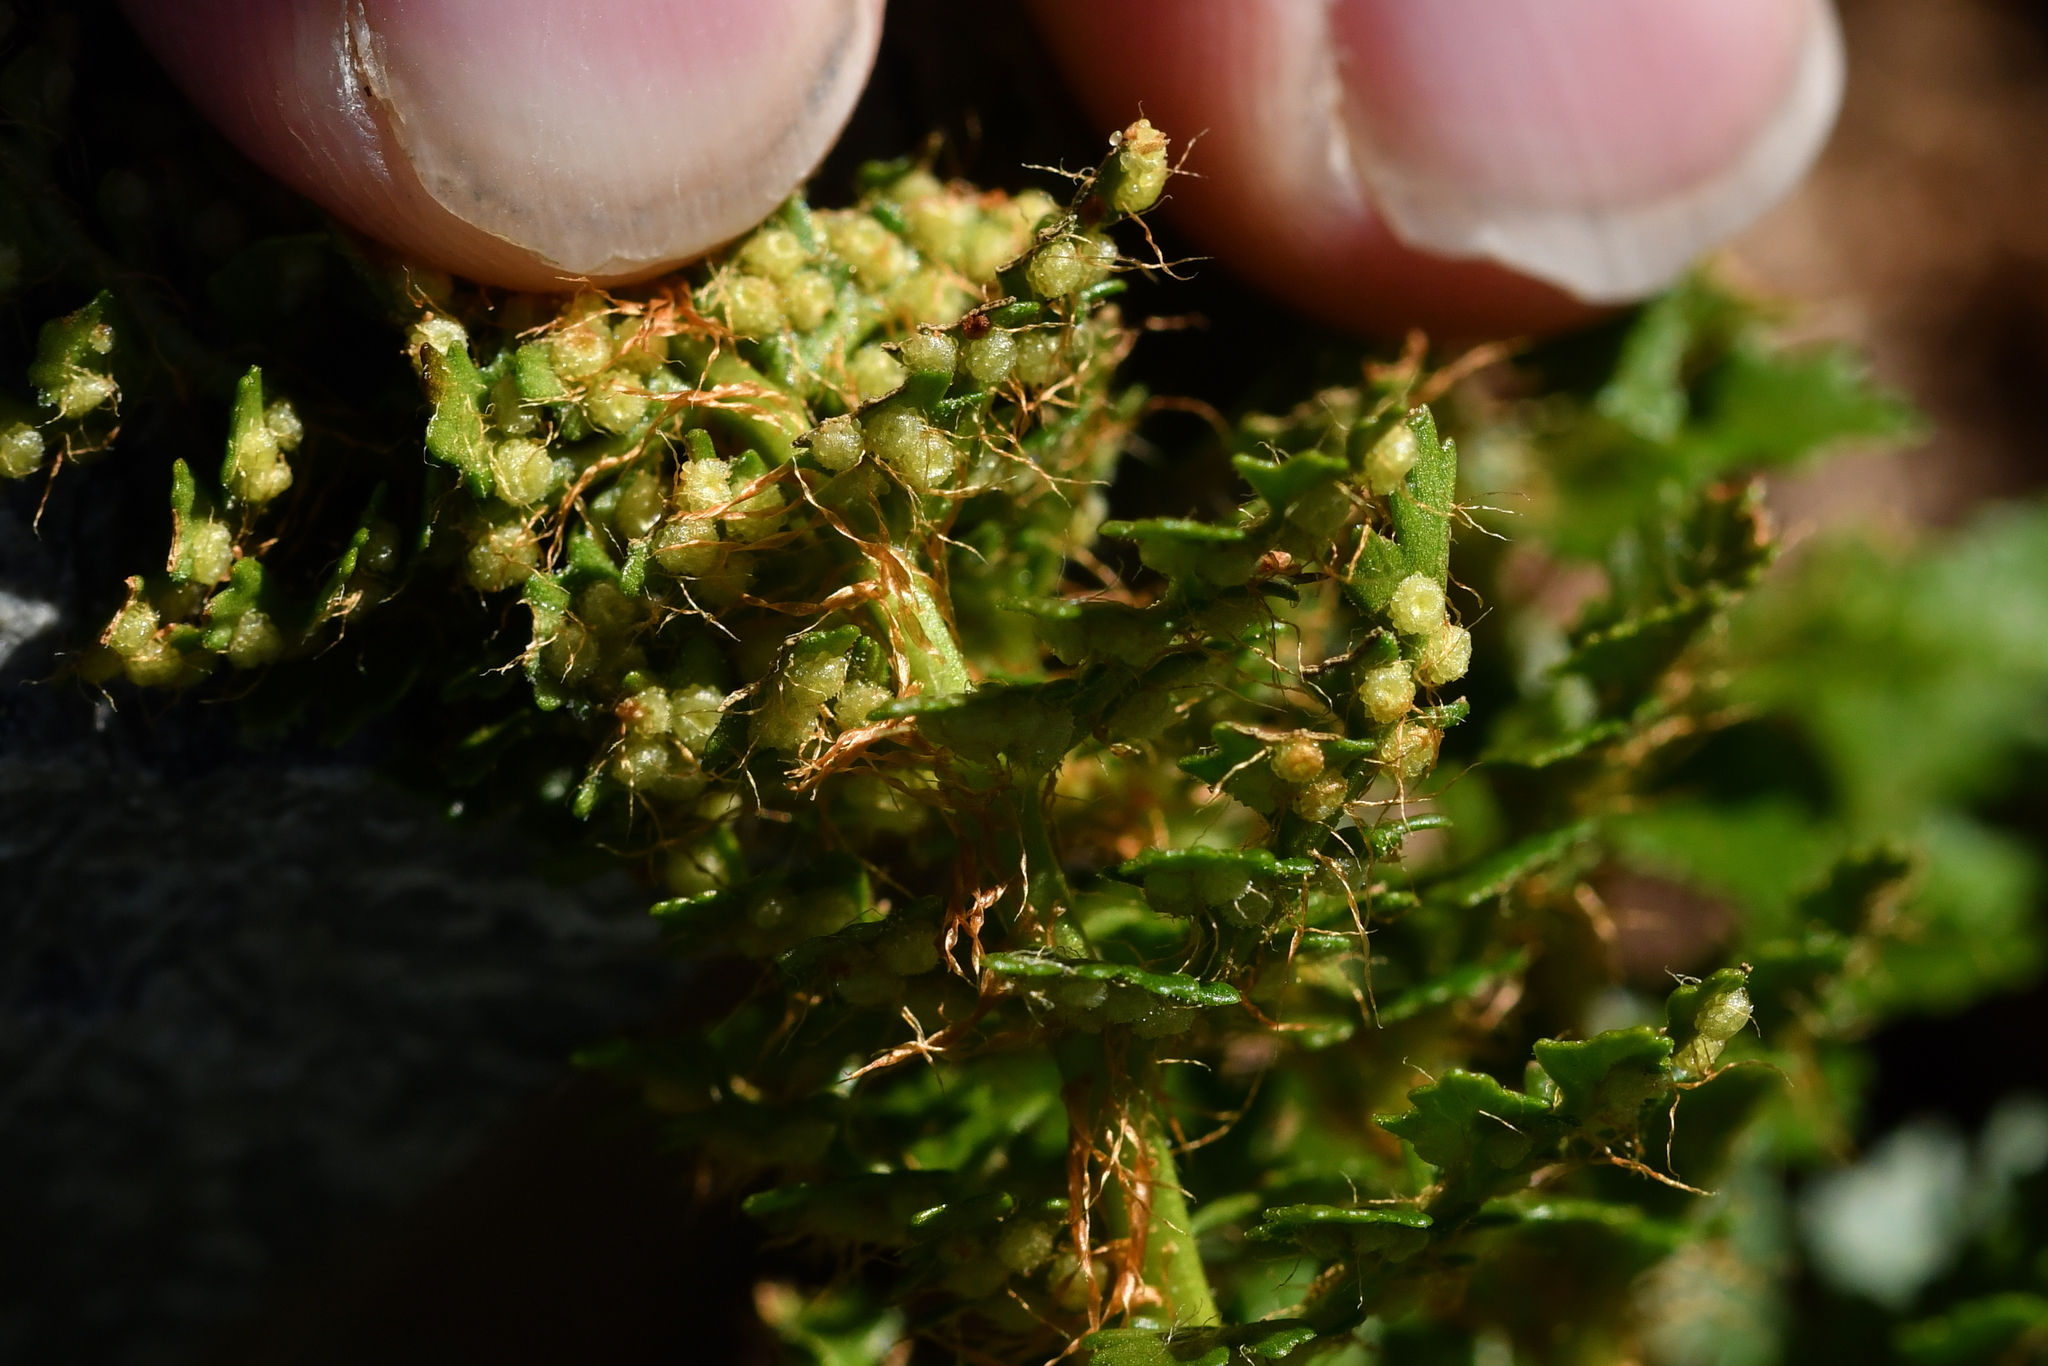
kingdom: Plantae
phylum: Tracheophyta
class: Polypodiopsida
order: Polypodiales
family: Dryopteridaceae
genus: Polystichum
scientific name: Polystichum cystostegia
